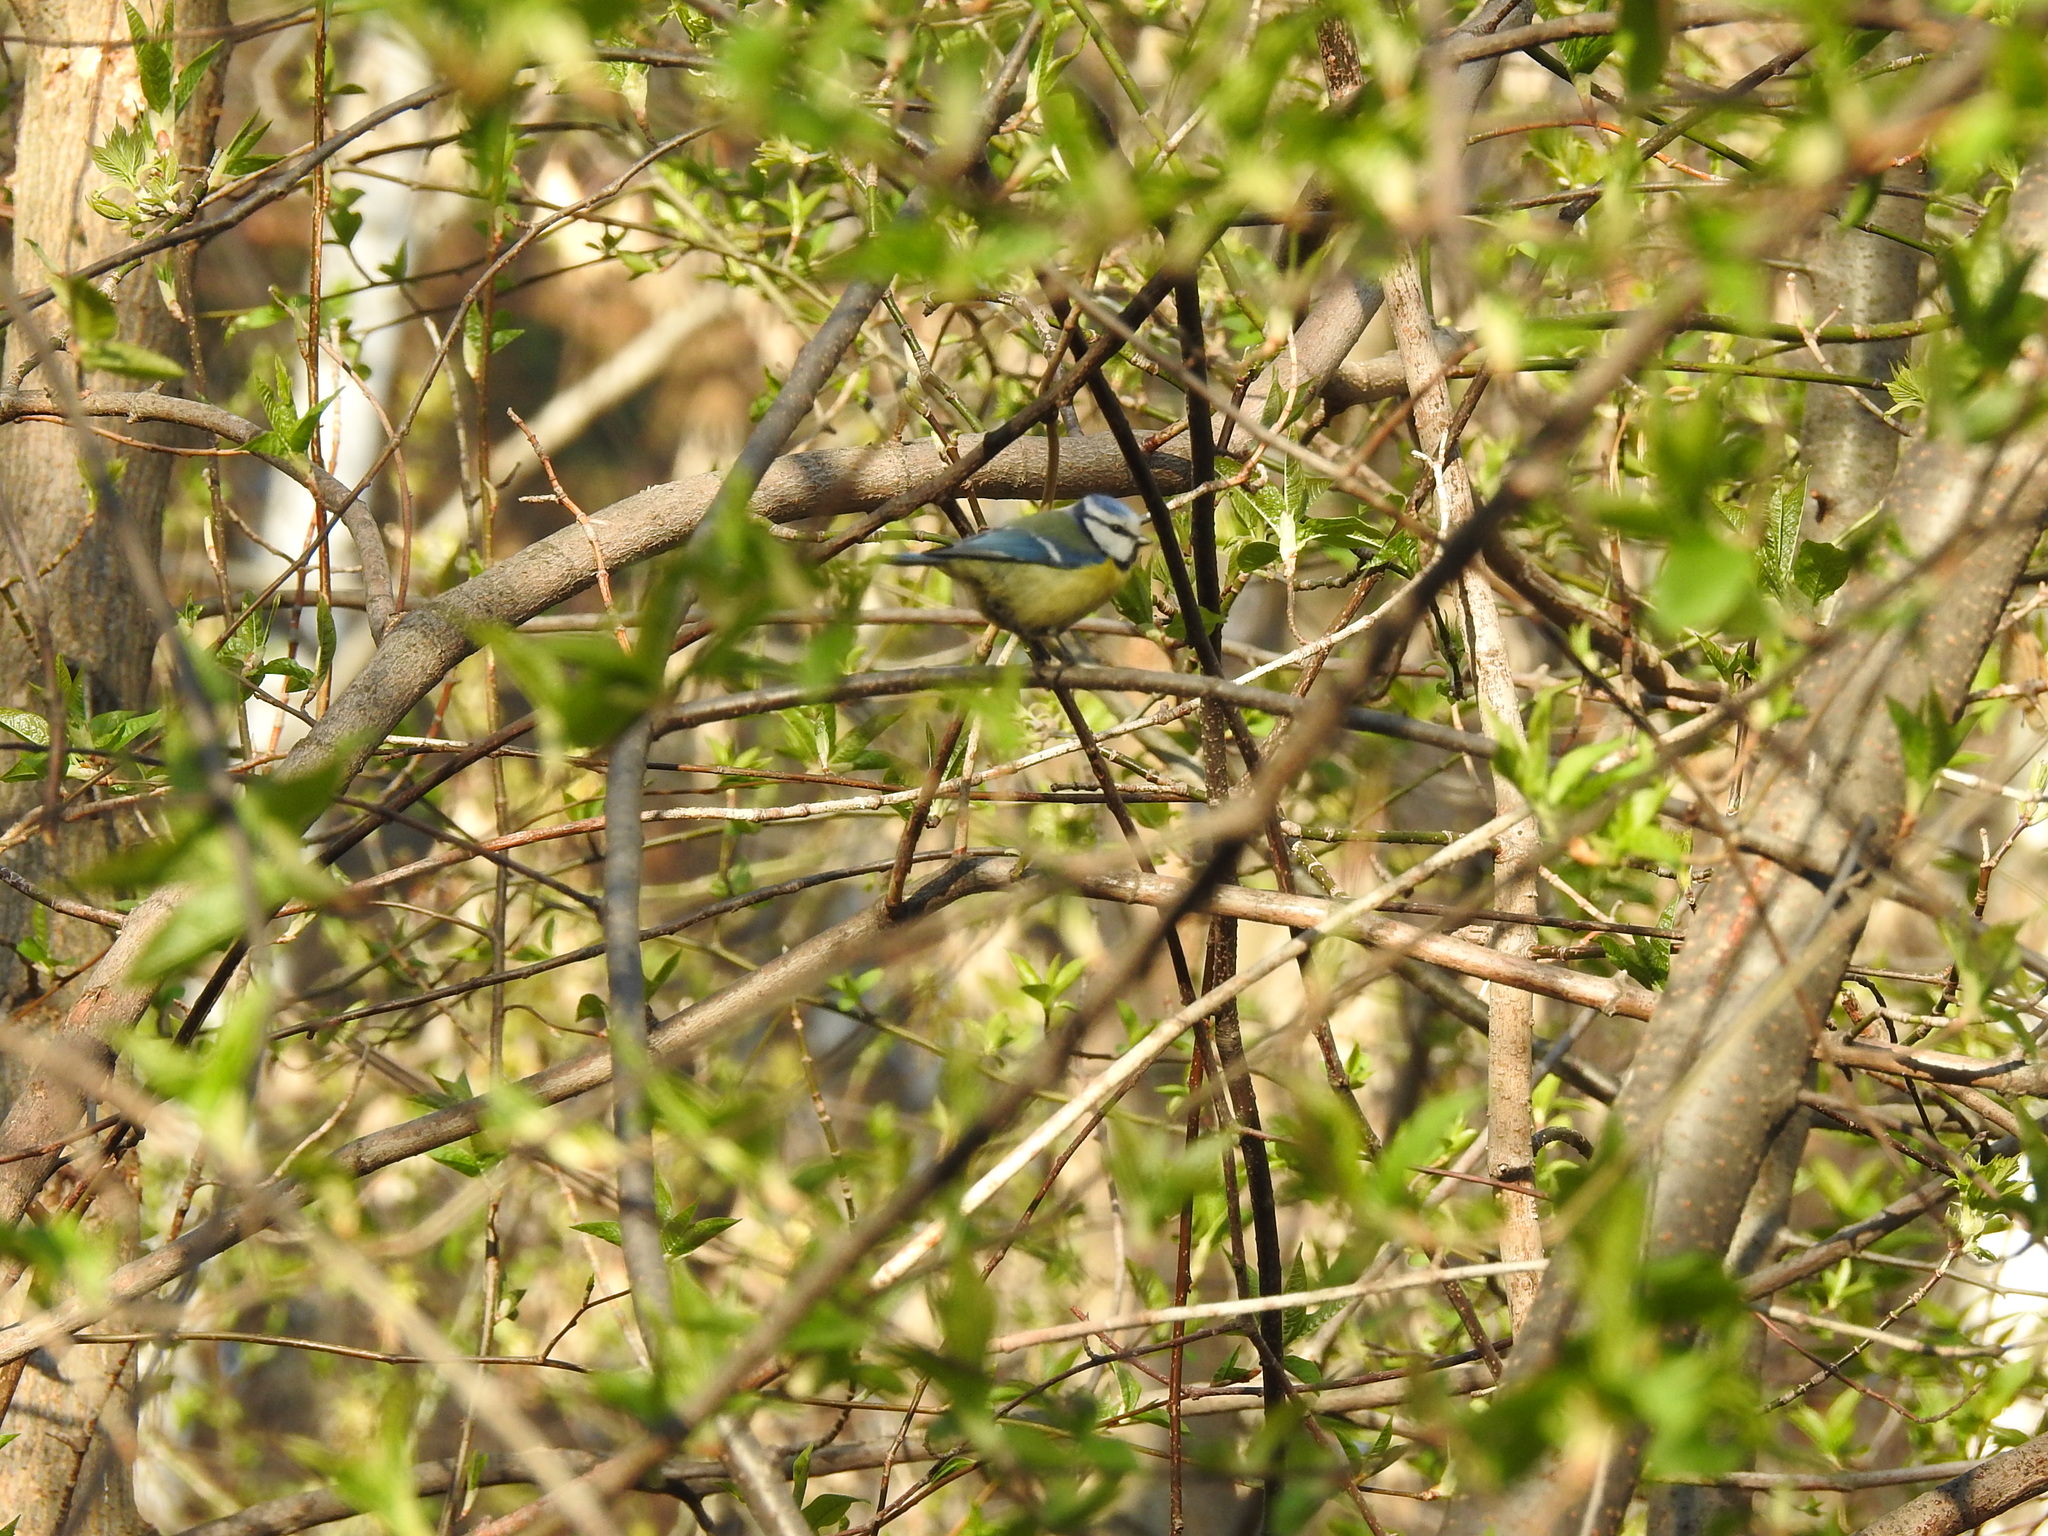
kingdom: Animalia
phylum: Chordata
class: Aves
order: Passeriformes
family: Paridae
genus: Cyanistes
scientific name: Cyanistes caeruleus
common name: Eurasian blue tit
